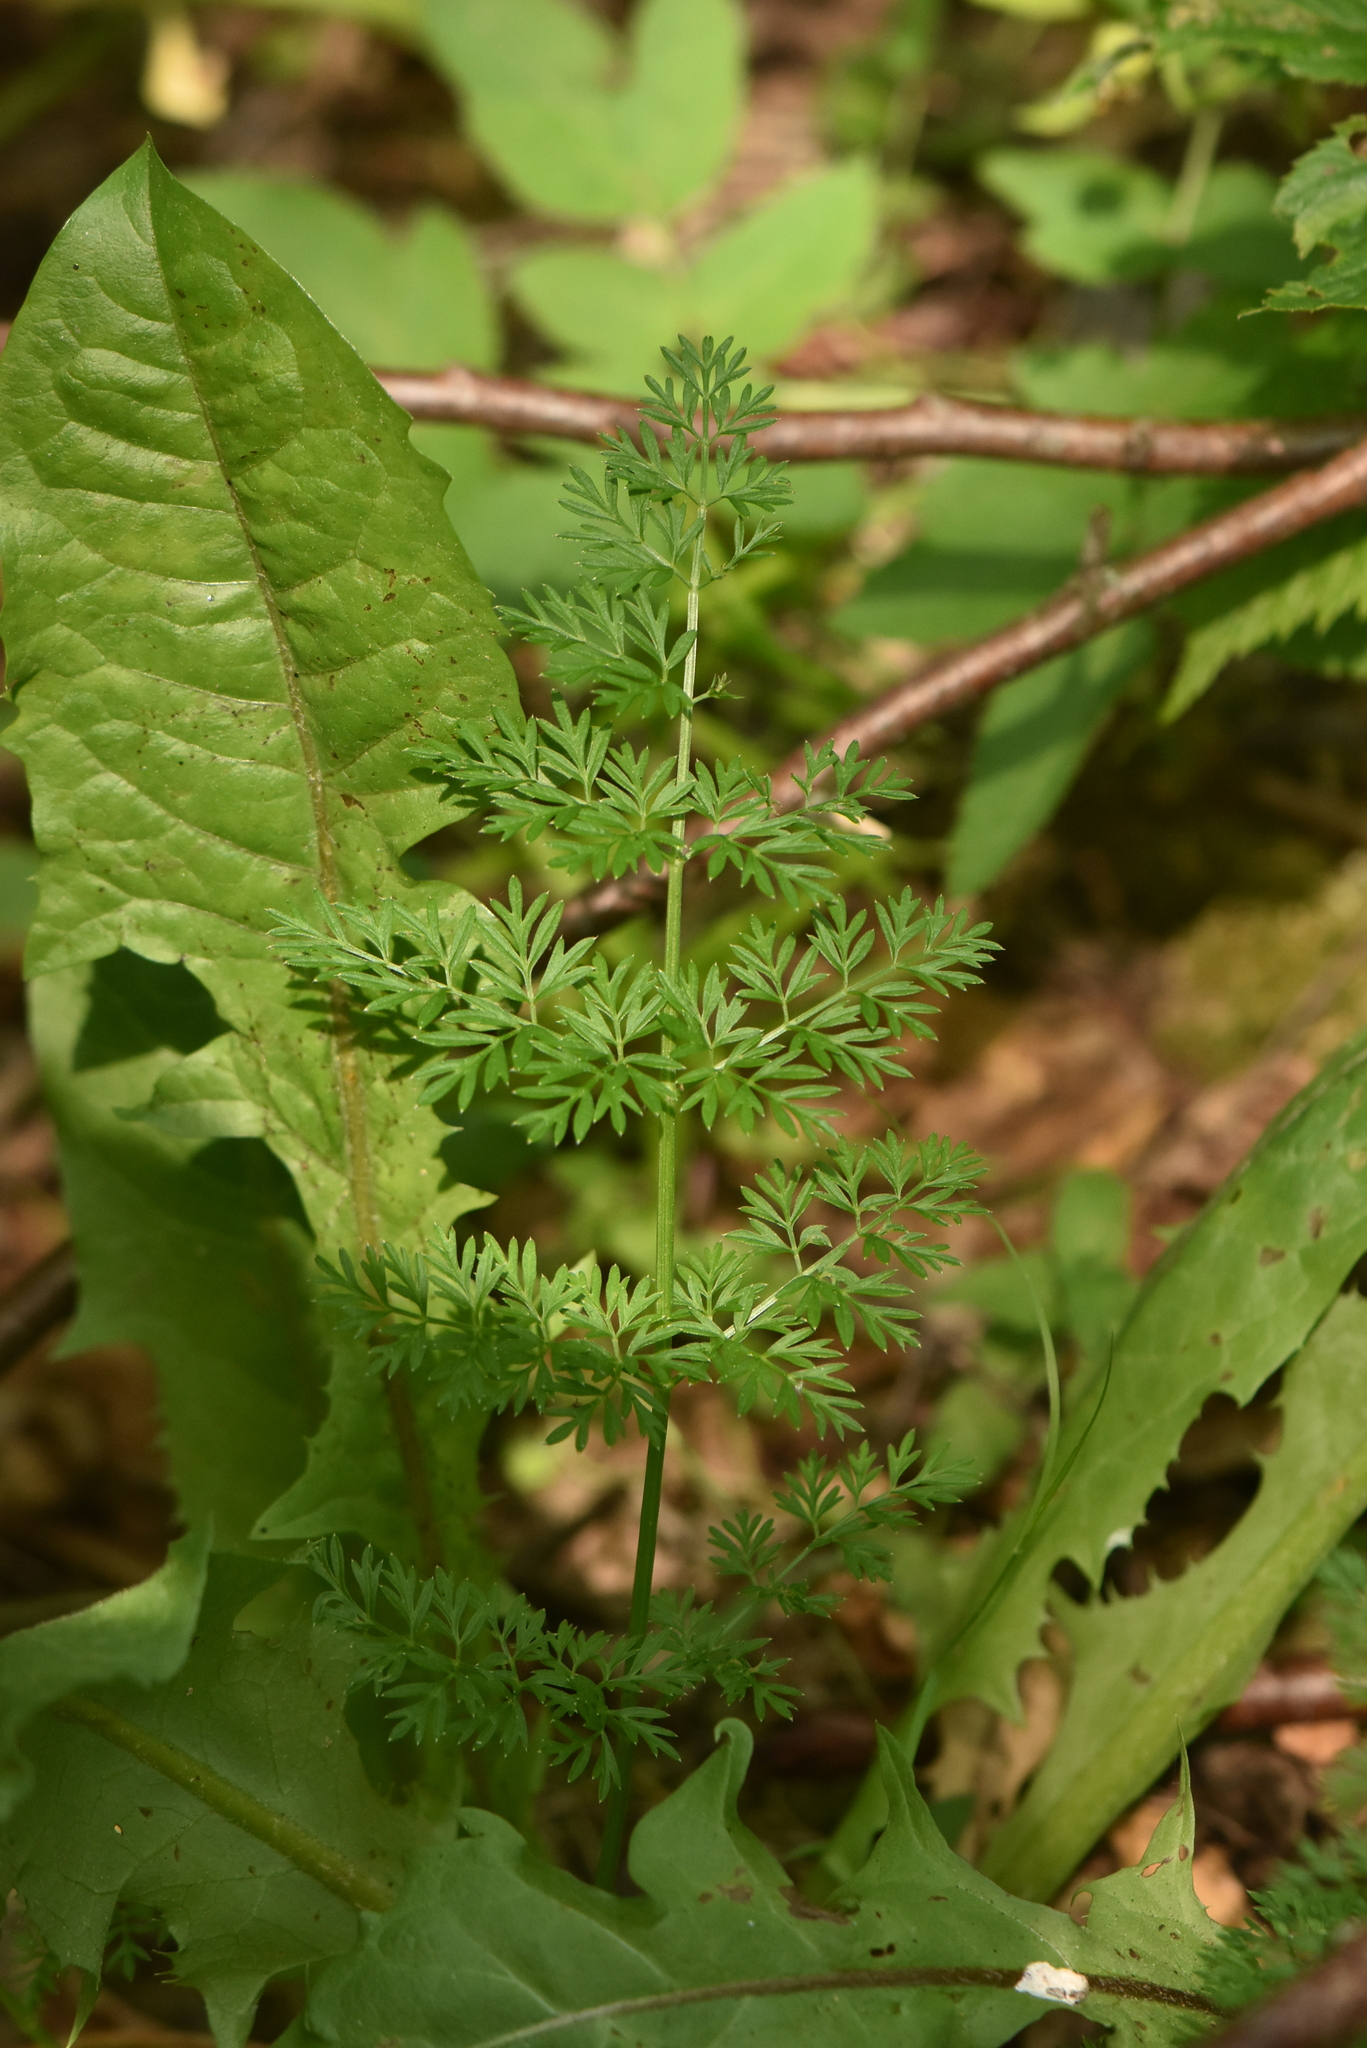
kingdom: Plantae
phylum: Tracheophyta
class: Magnoliopsida
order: Apiales
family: Apiaceae
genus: Selinum
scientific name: Selinum carvifolia
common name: Cambridge milk-parsley
